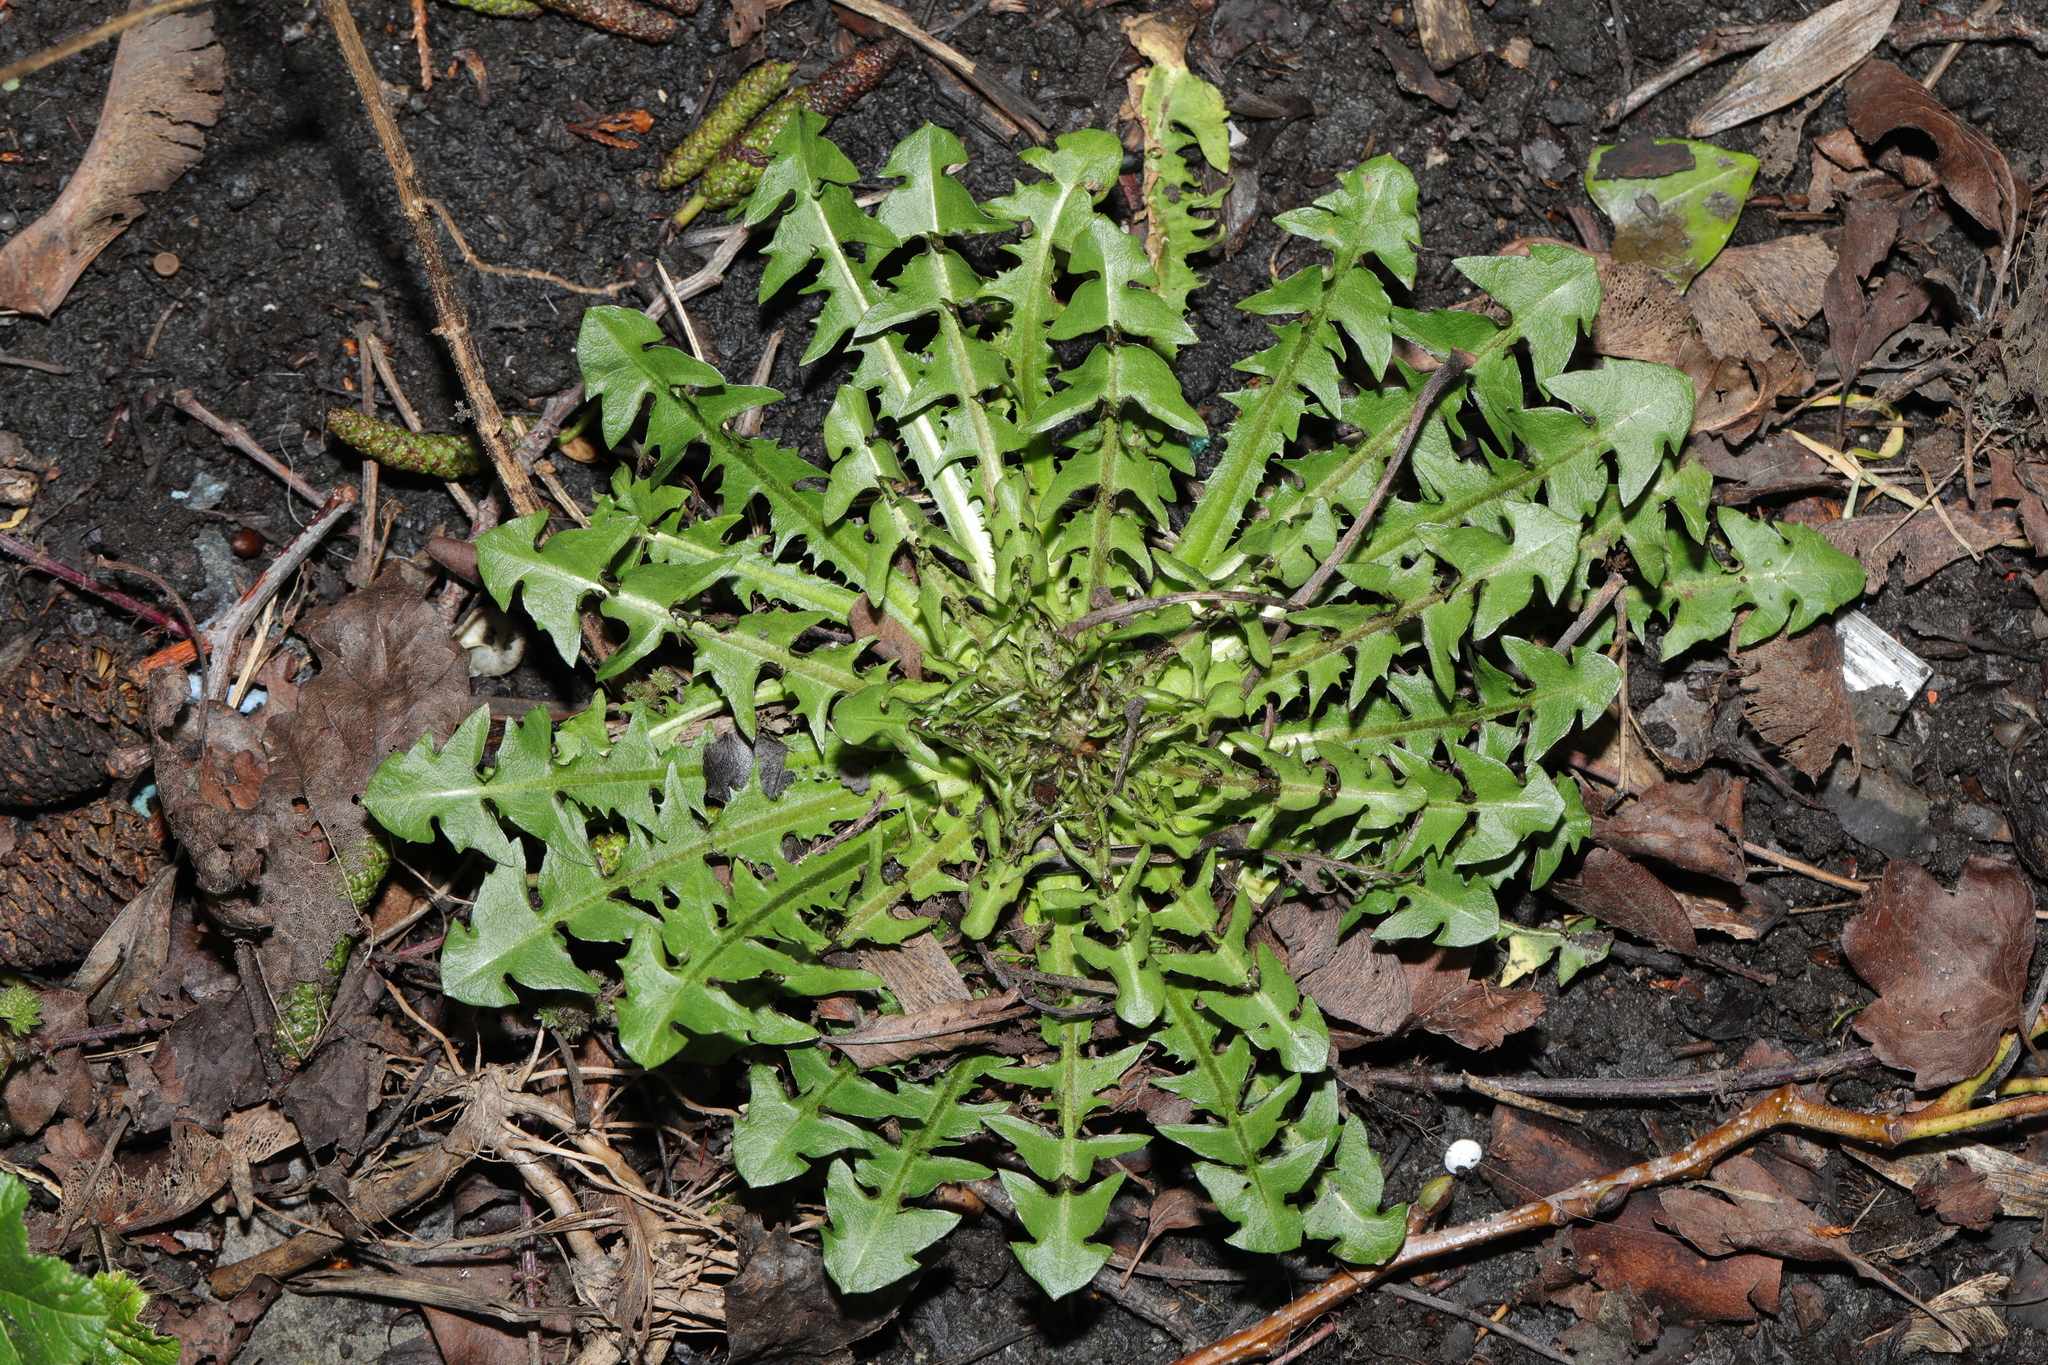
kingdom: Plantae
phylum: Tracheophyta
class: Magnoliopsida
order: Asterales
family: Asteraceae
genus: Taraxacum
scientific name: Taraxacum officinale
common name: Common dandelion
